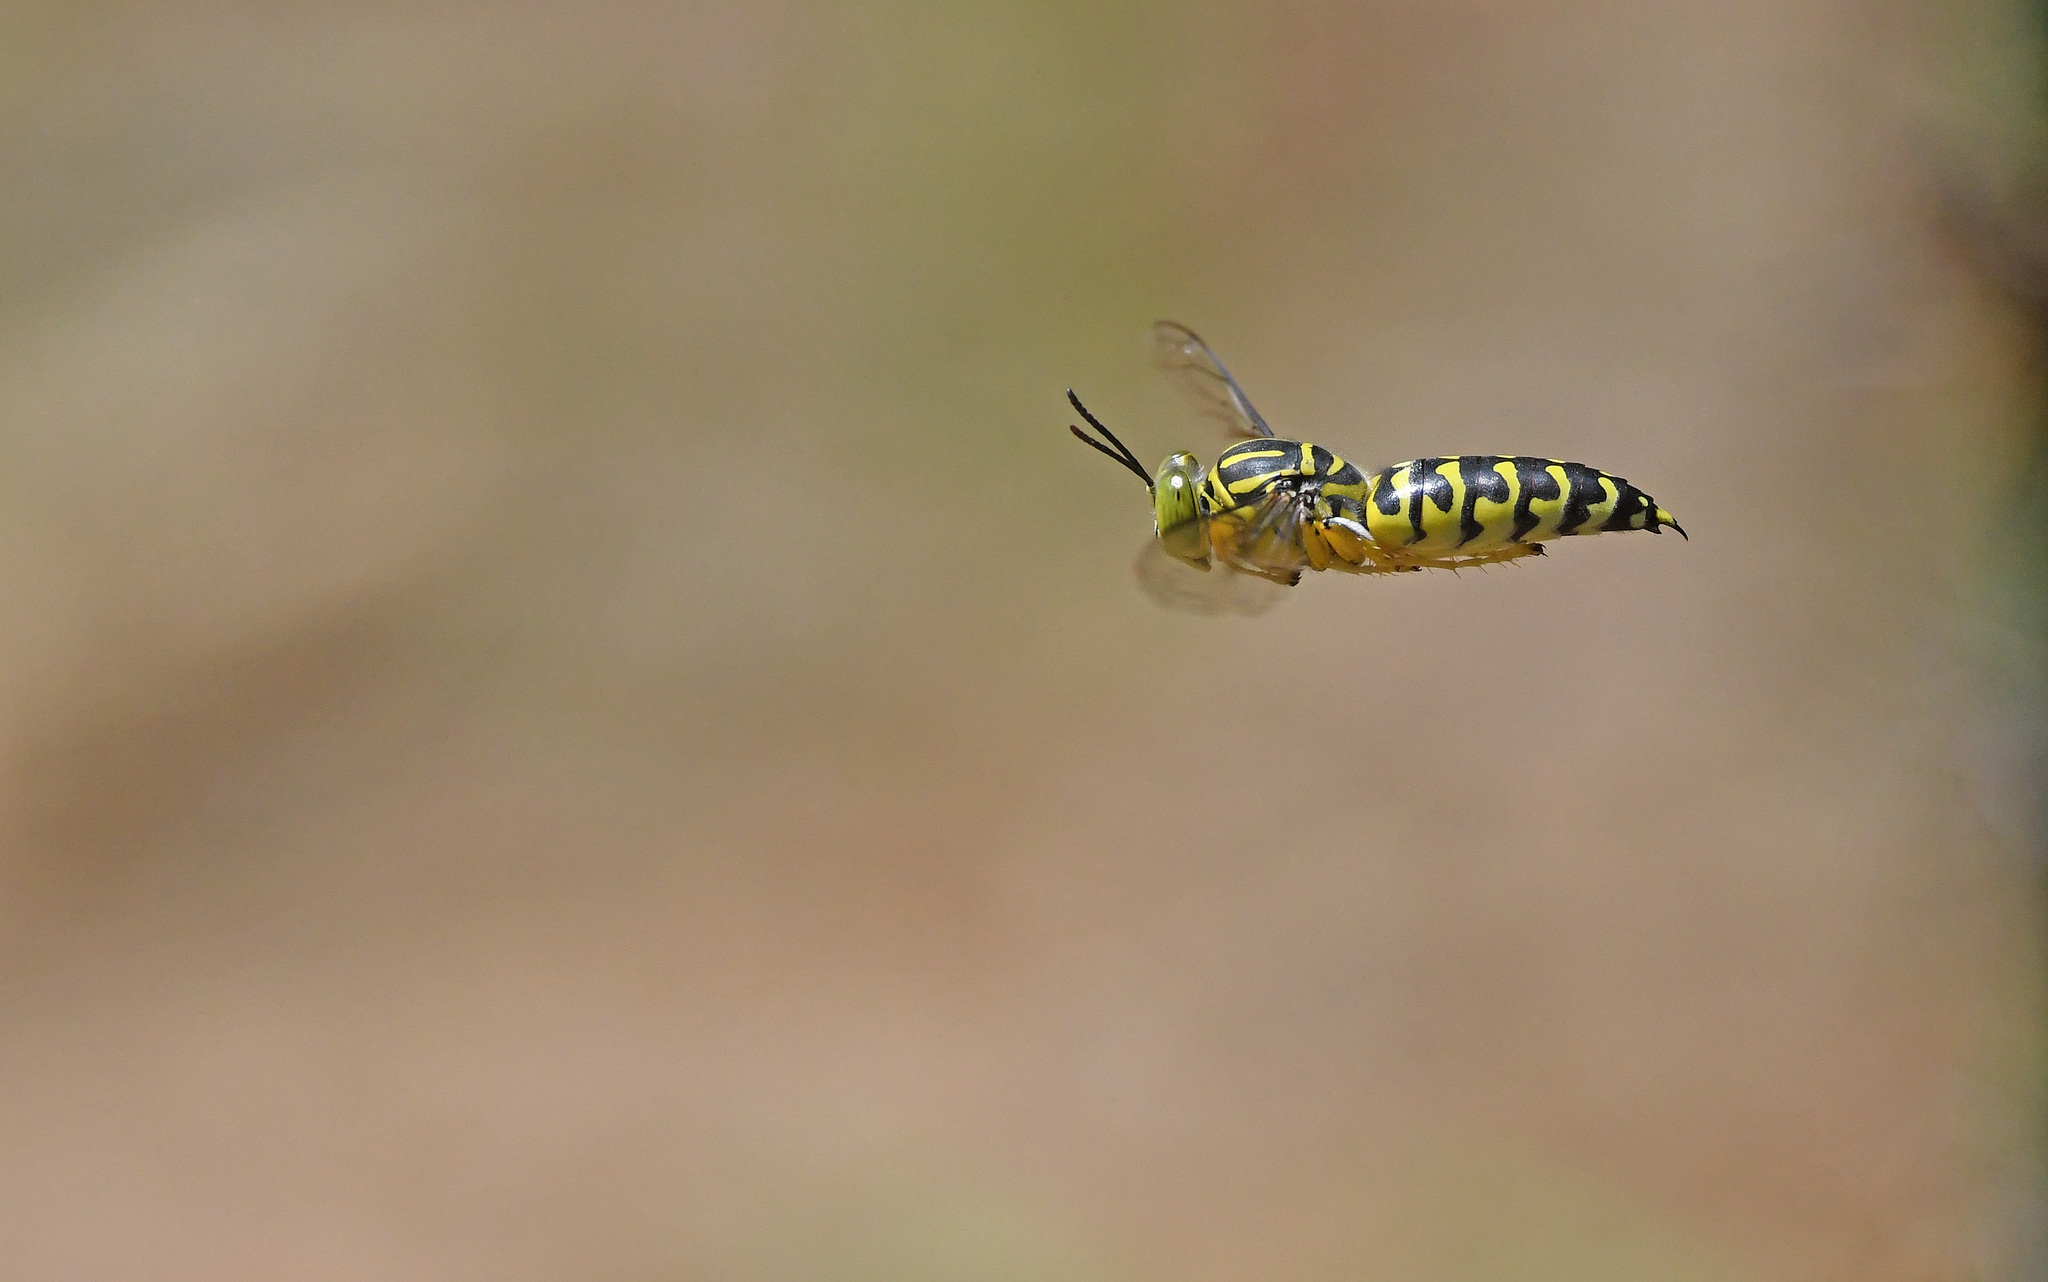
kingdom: Animalia
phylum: Arthropoda
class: Insecta
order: Hymenoptera
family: Crabronidae
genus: Stictia
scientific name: Stictia signata
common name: Sand wasp
